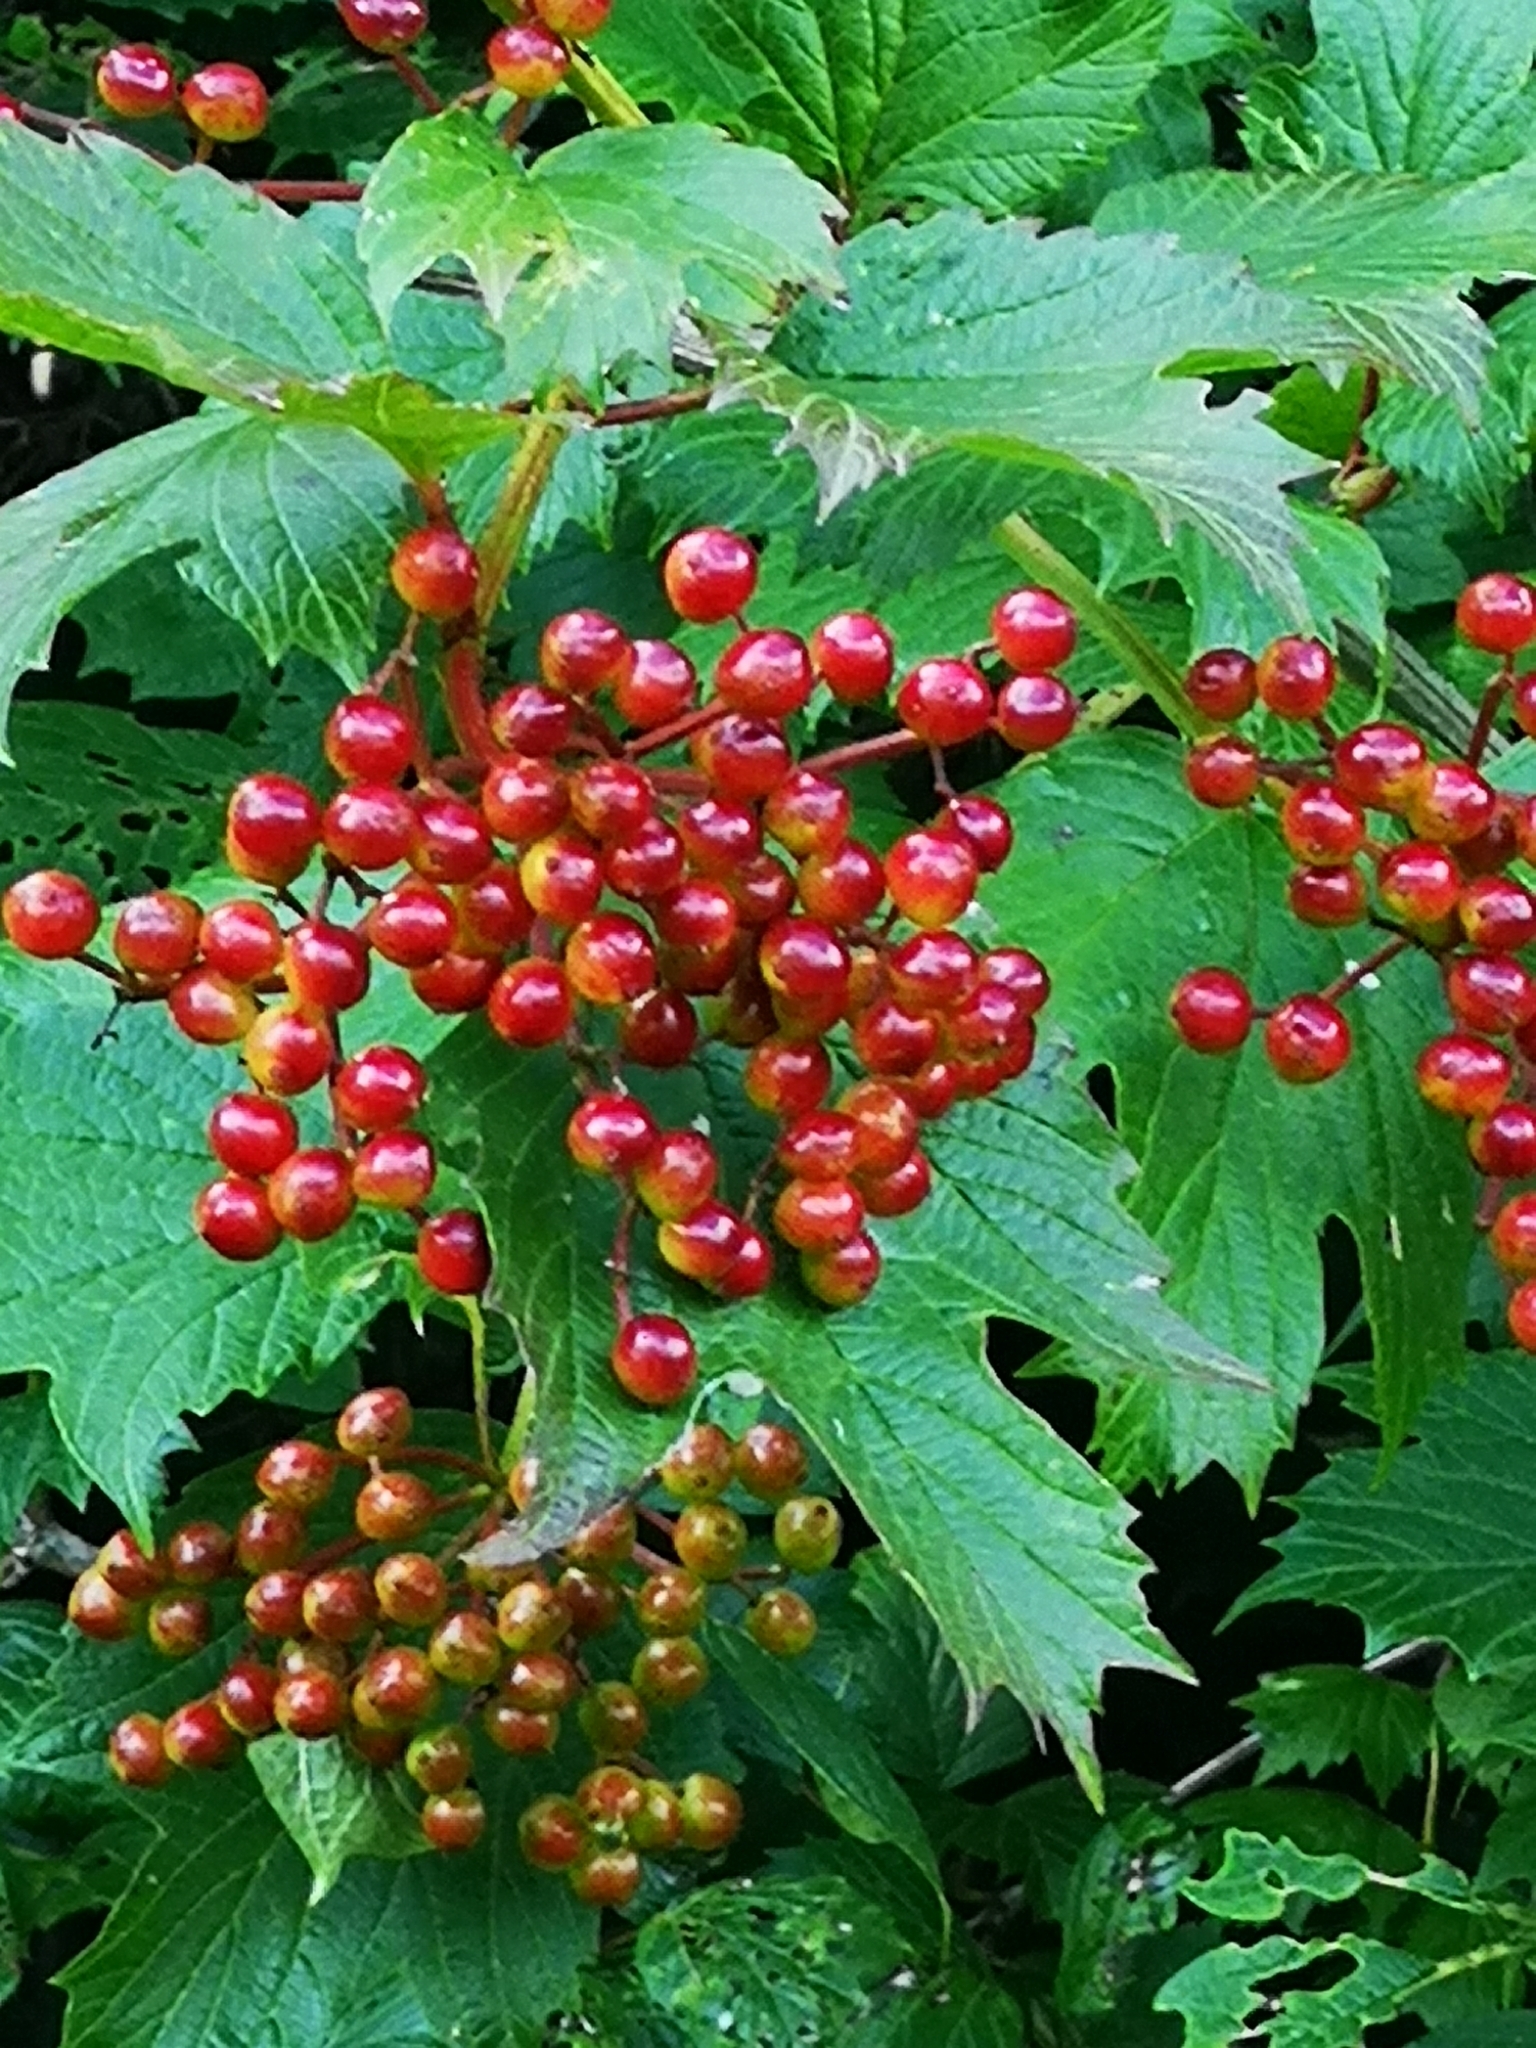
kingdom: Plantae
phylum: Tracheophyta
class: Magnoliopsida
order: Dipsacales
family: Viburnaceae
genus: Viburnum
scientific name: Viburnum opulus
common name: Guelder-rose
